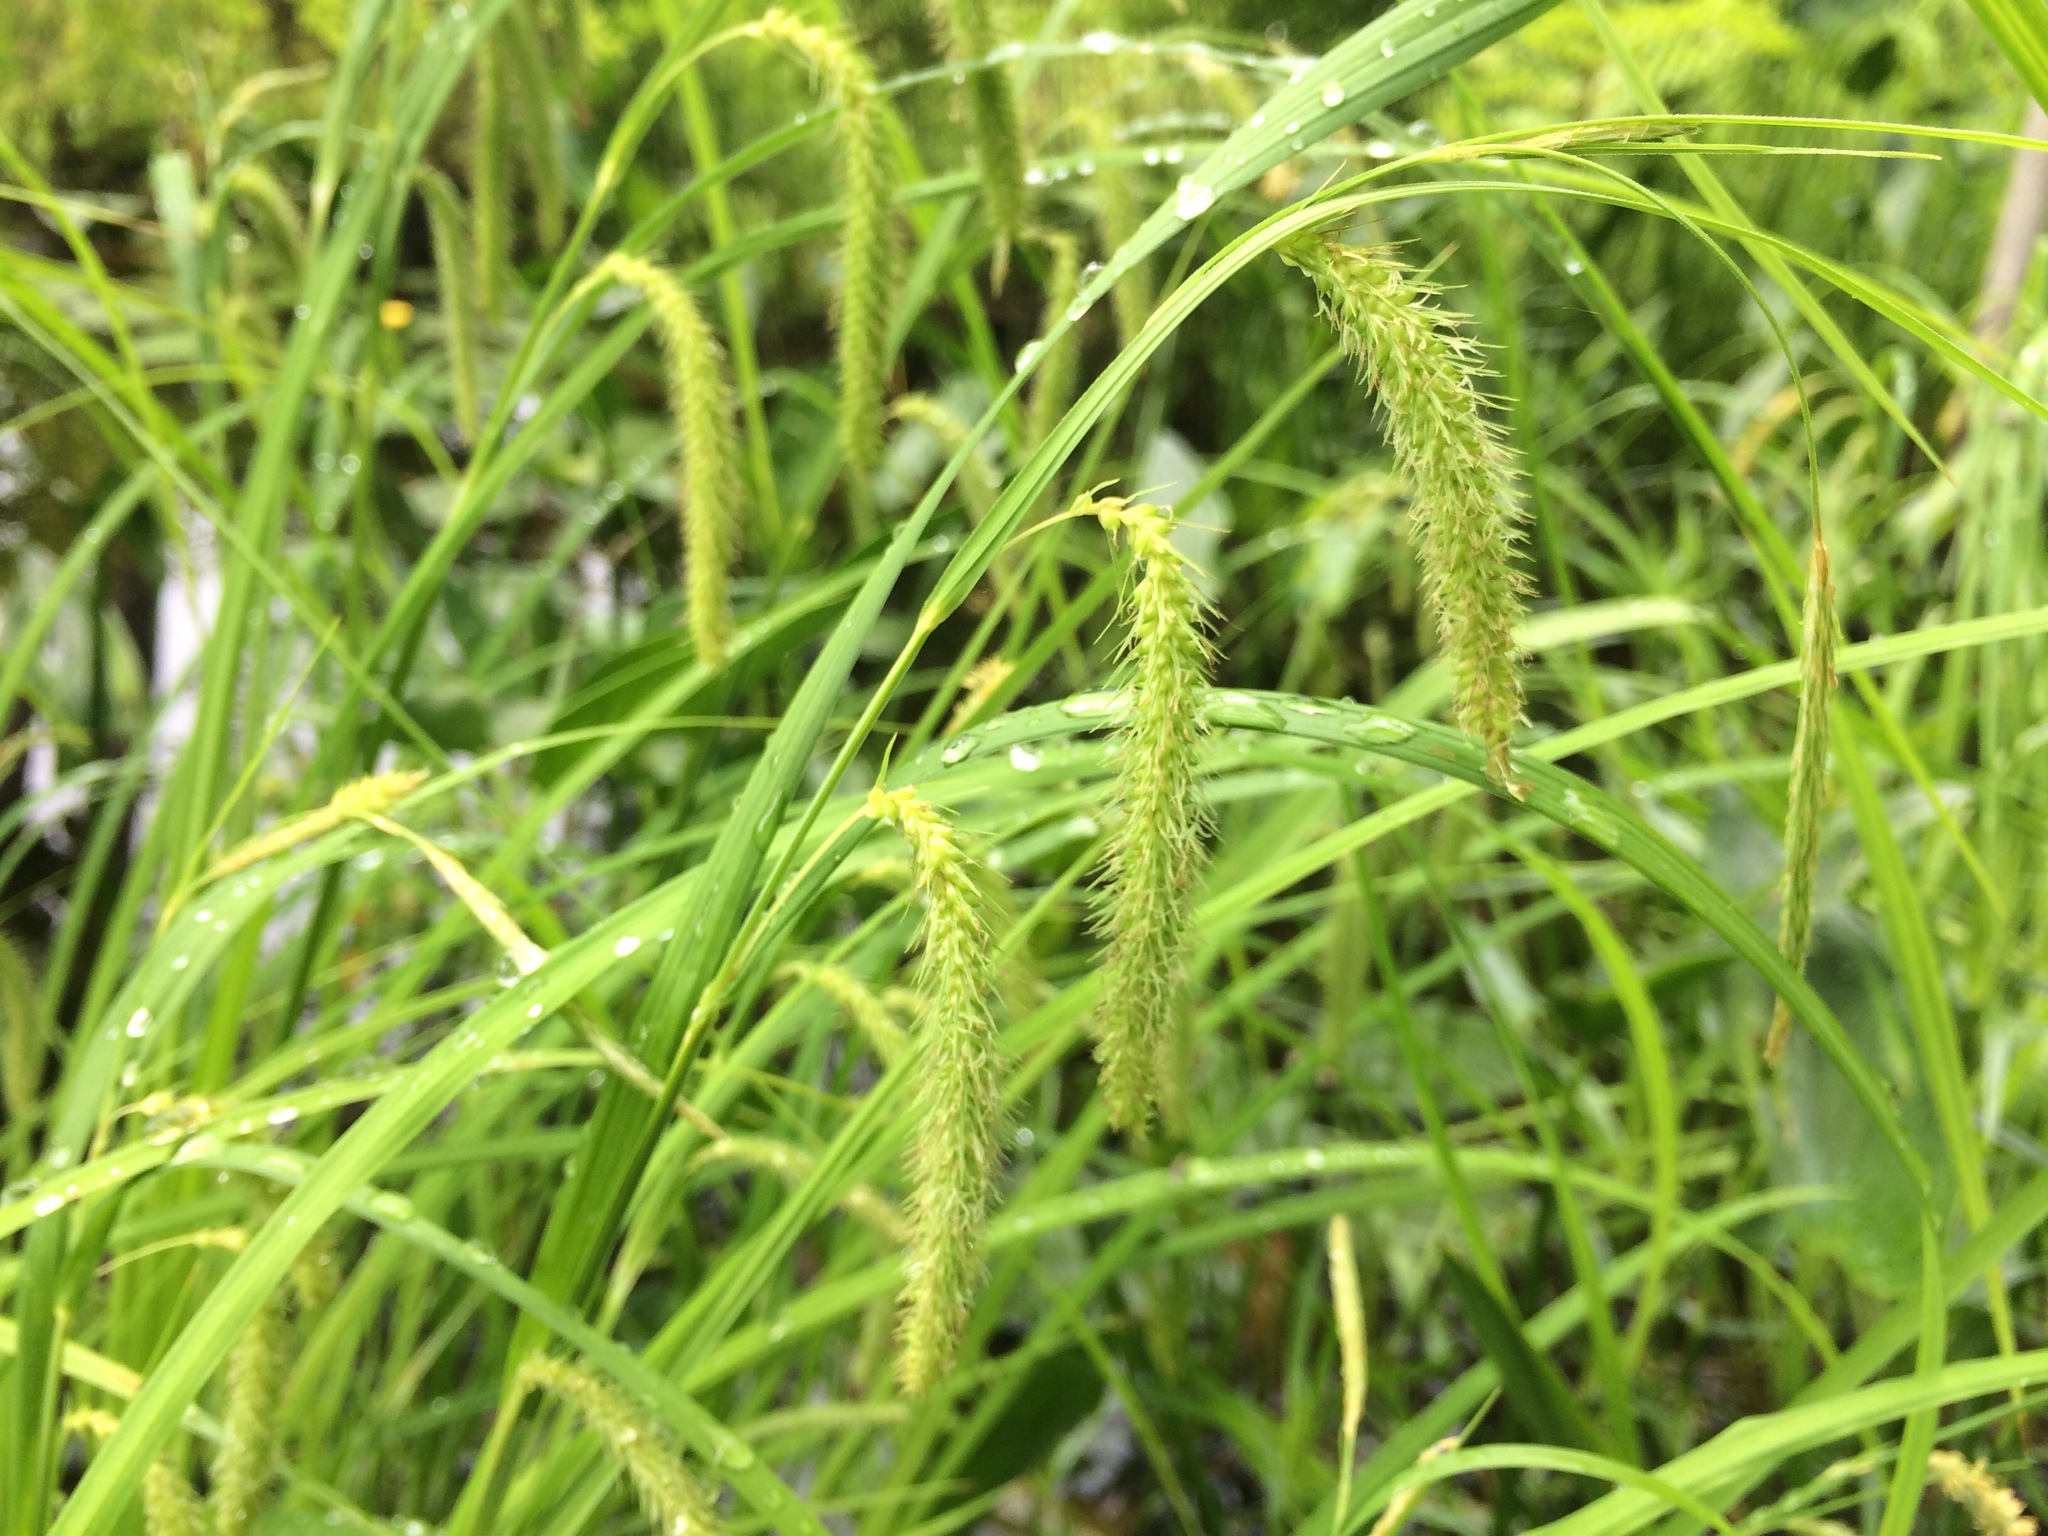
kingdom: Plantae
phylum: Tracheophyta
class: Liliopsida
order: Poales
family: Cyperaceae
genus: Carex
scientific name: Carex crinita
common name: Fringed sedge
